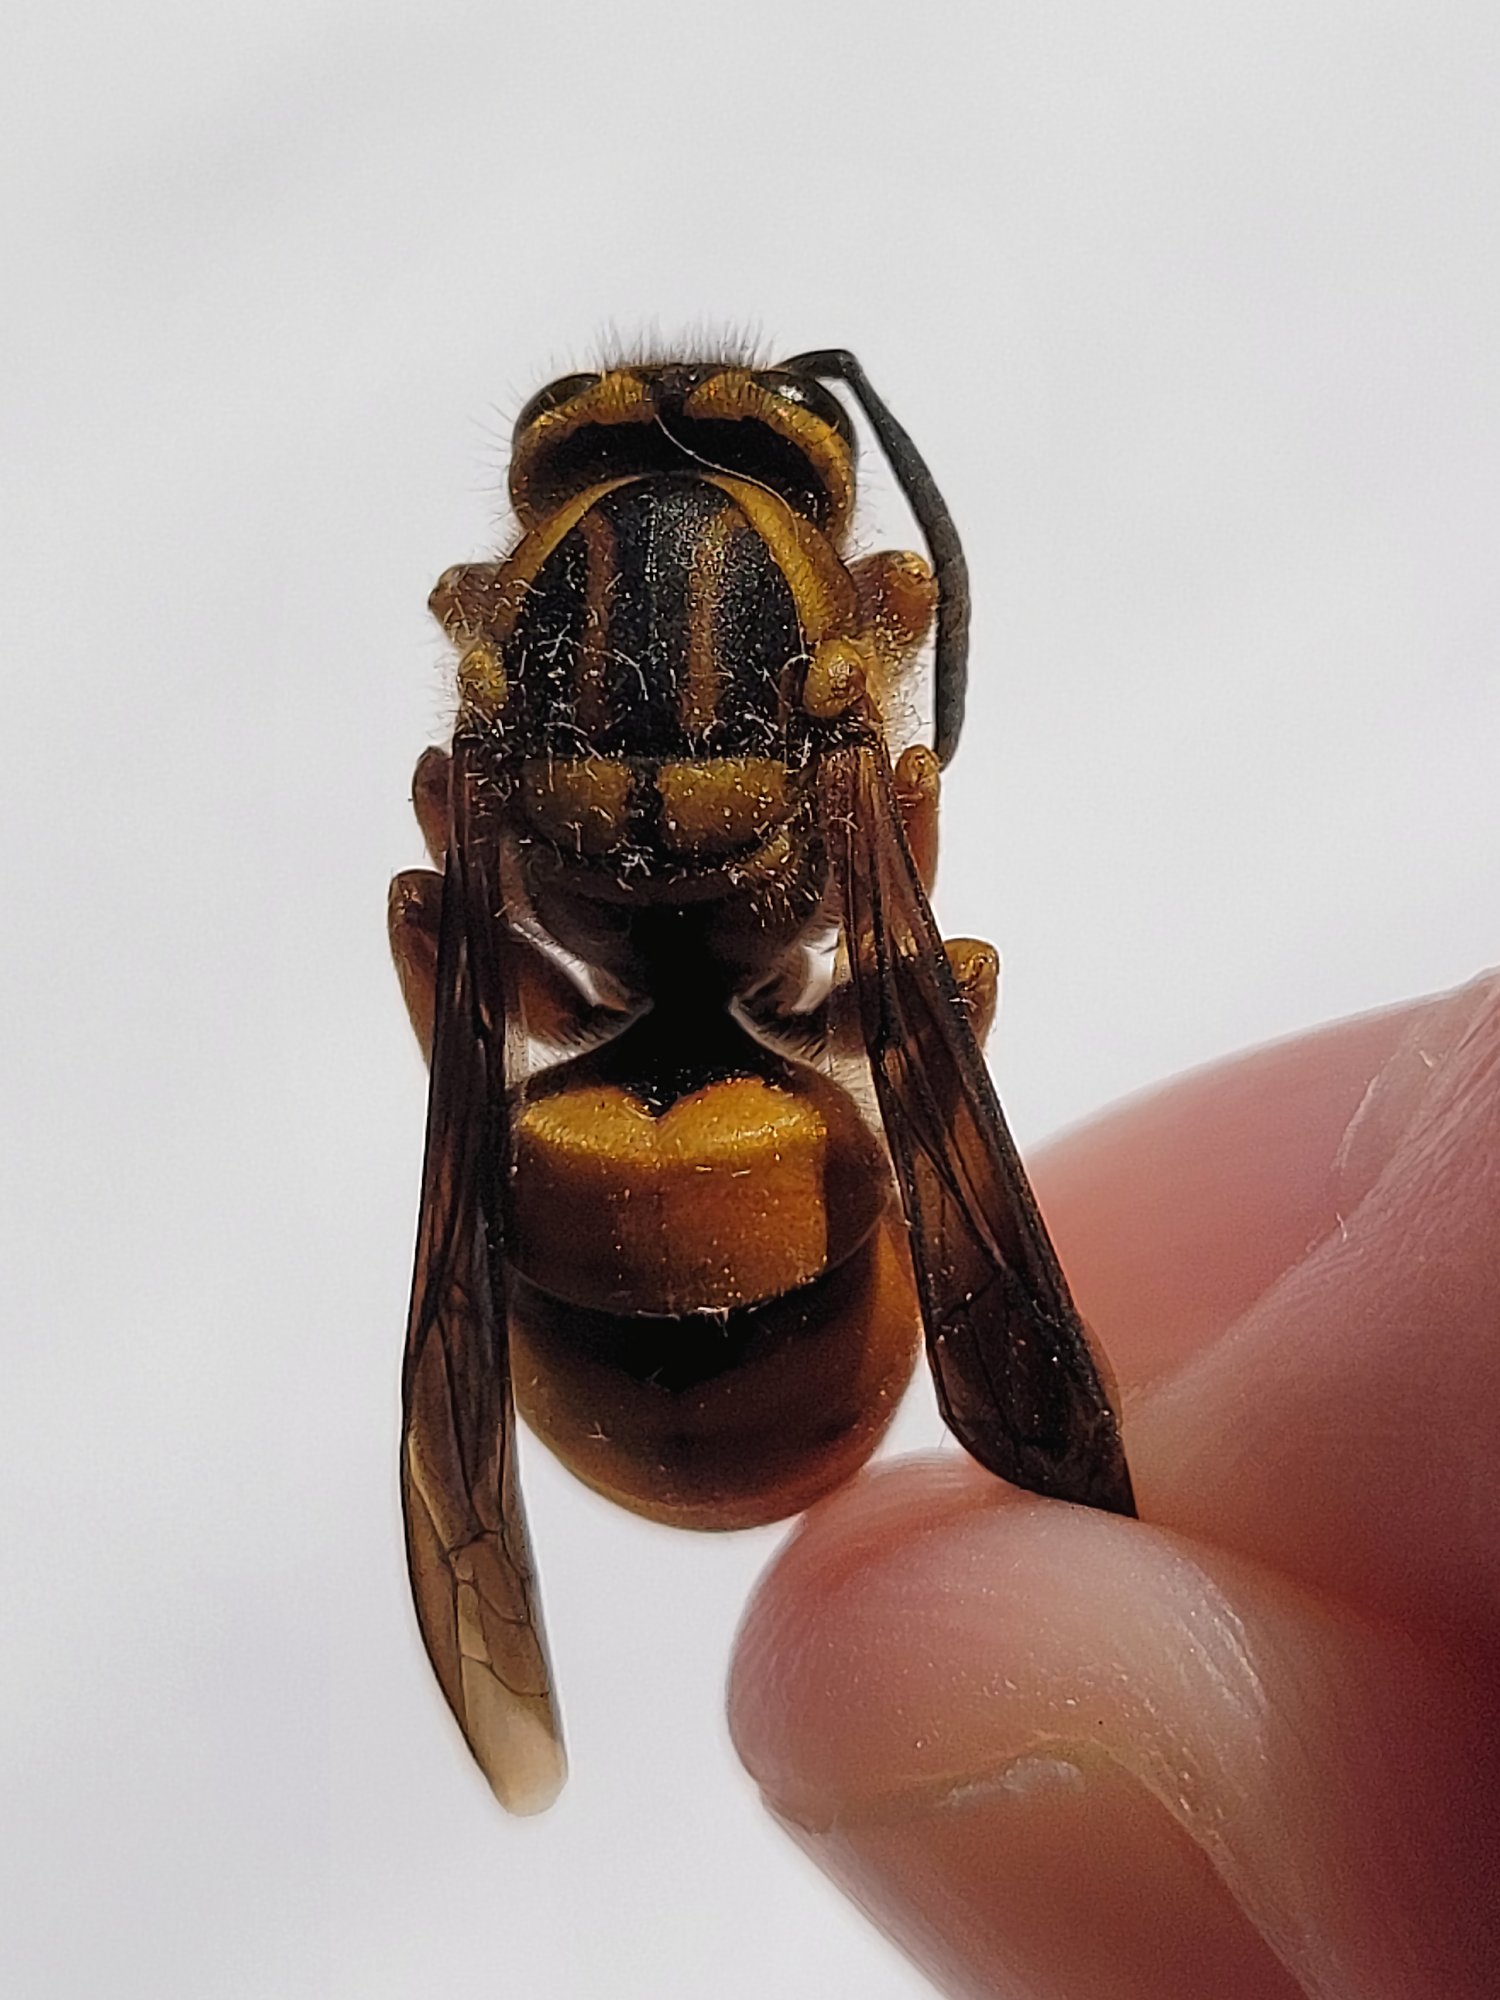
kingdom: Animalia
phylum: Arthropoda
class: Insecta
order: Hymenoptera
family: Vespidae
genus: Vespula
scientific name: Vespula squamosa
